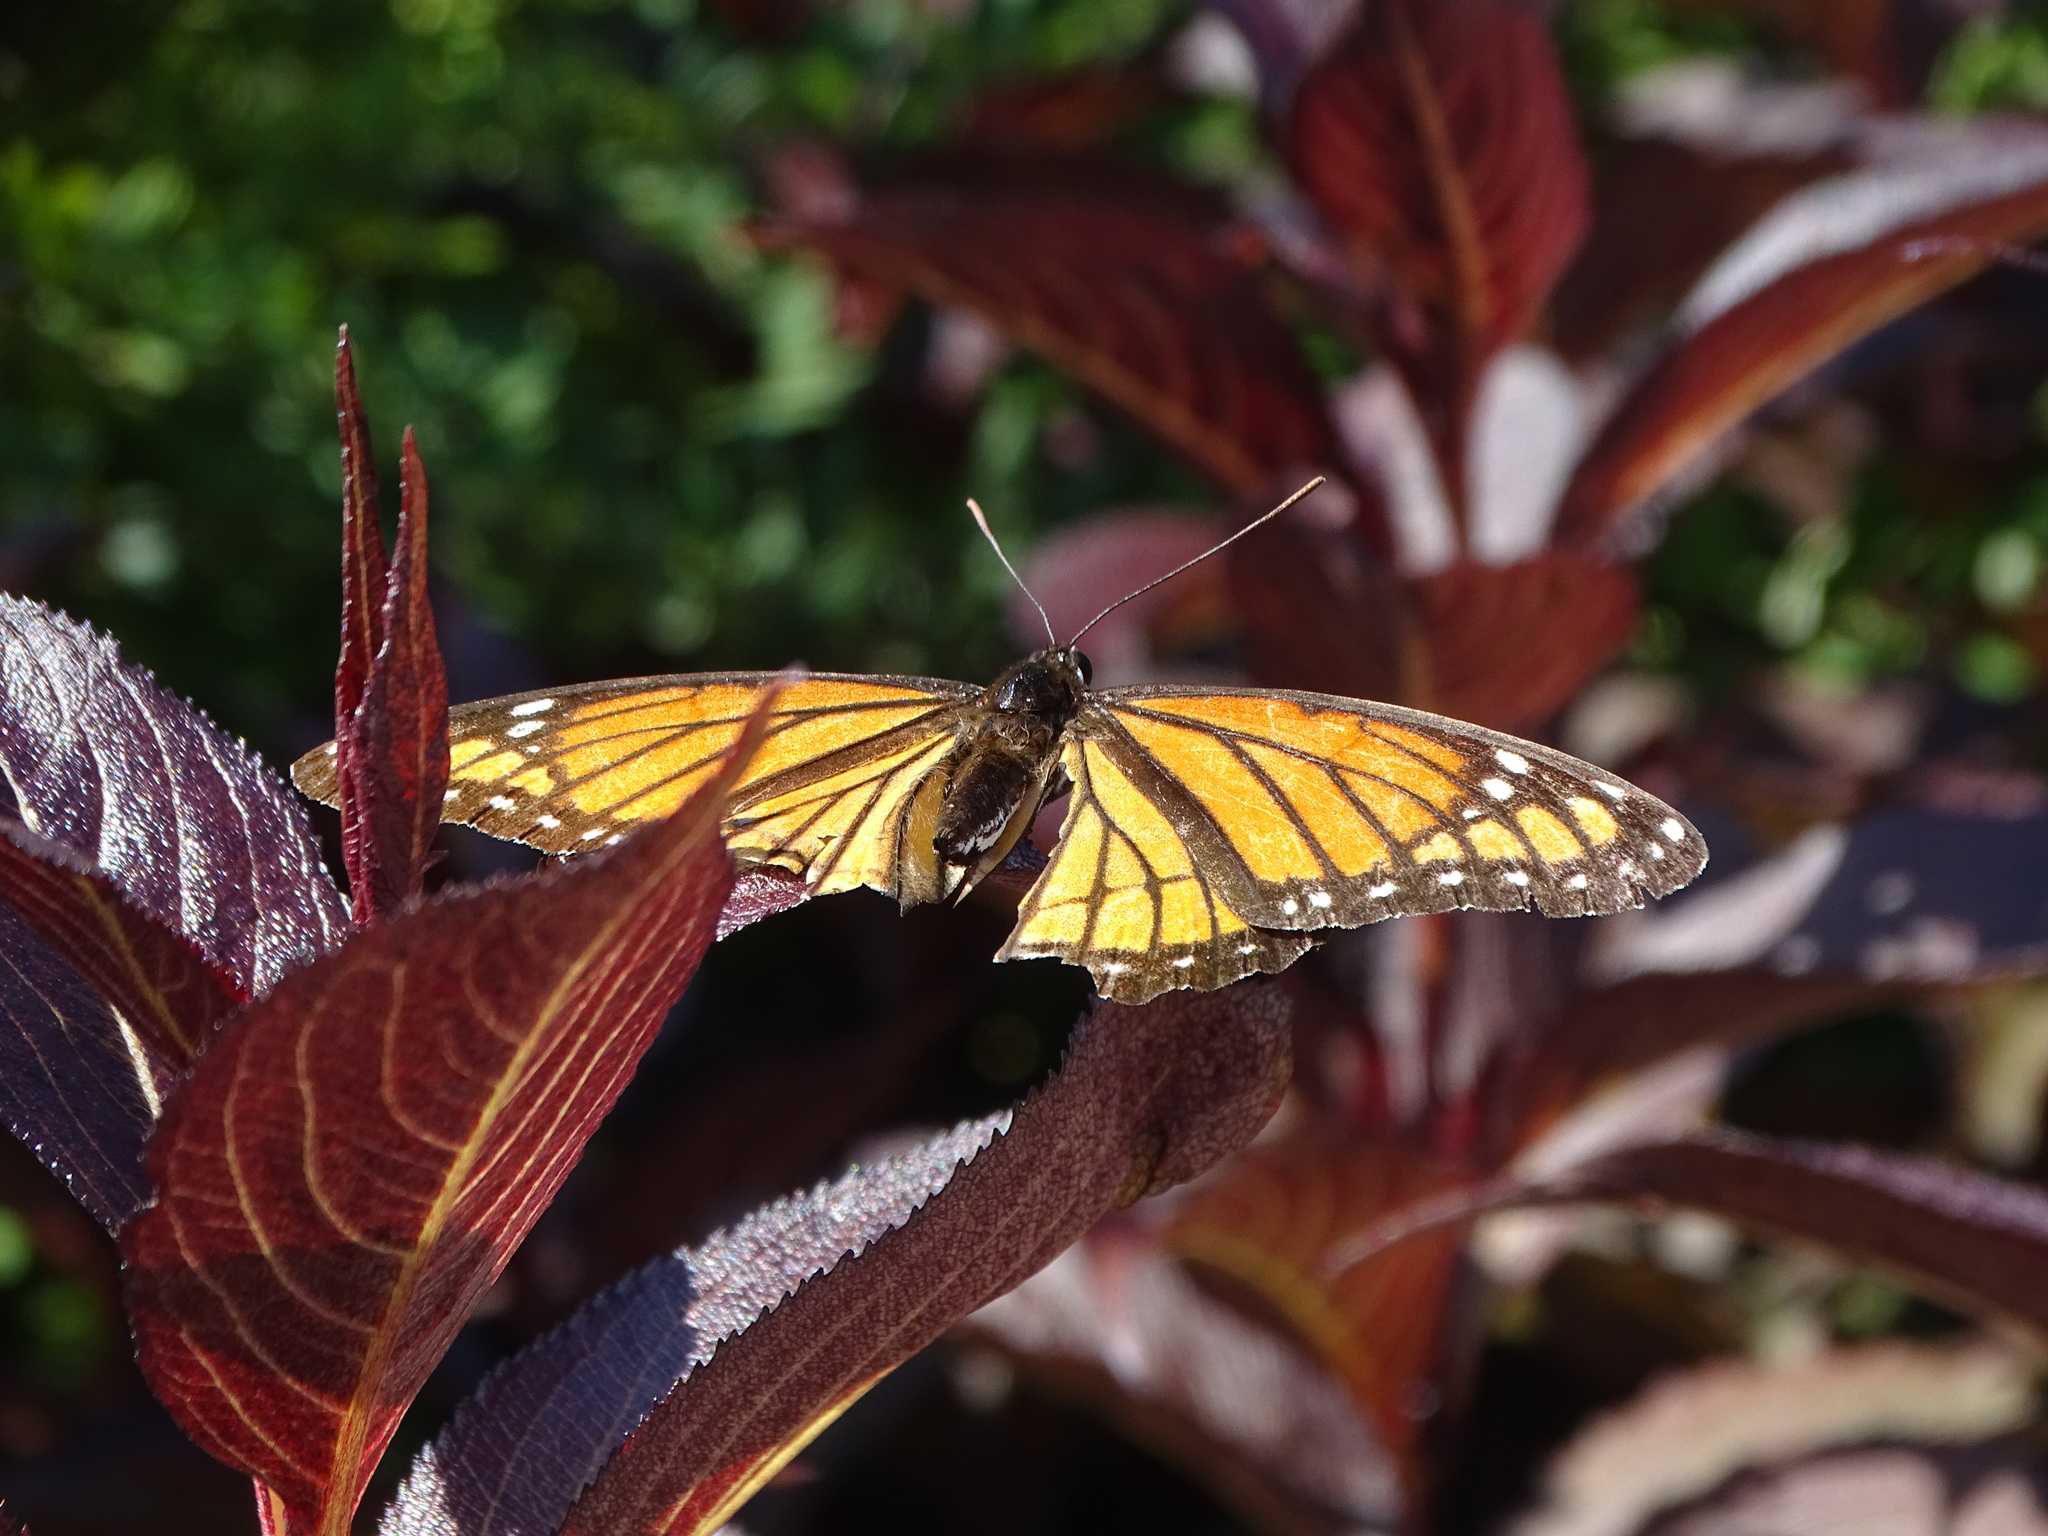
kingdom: Animalia
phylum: Arthropoda
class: Insecta
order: Lepidoptera
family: Nymphalidae
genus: Limenitis
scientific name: Limenitis archippus
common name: Viceroy
